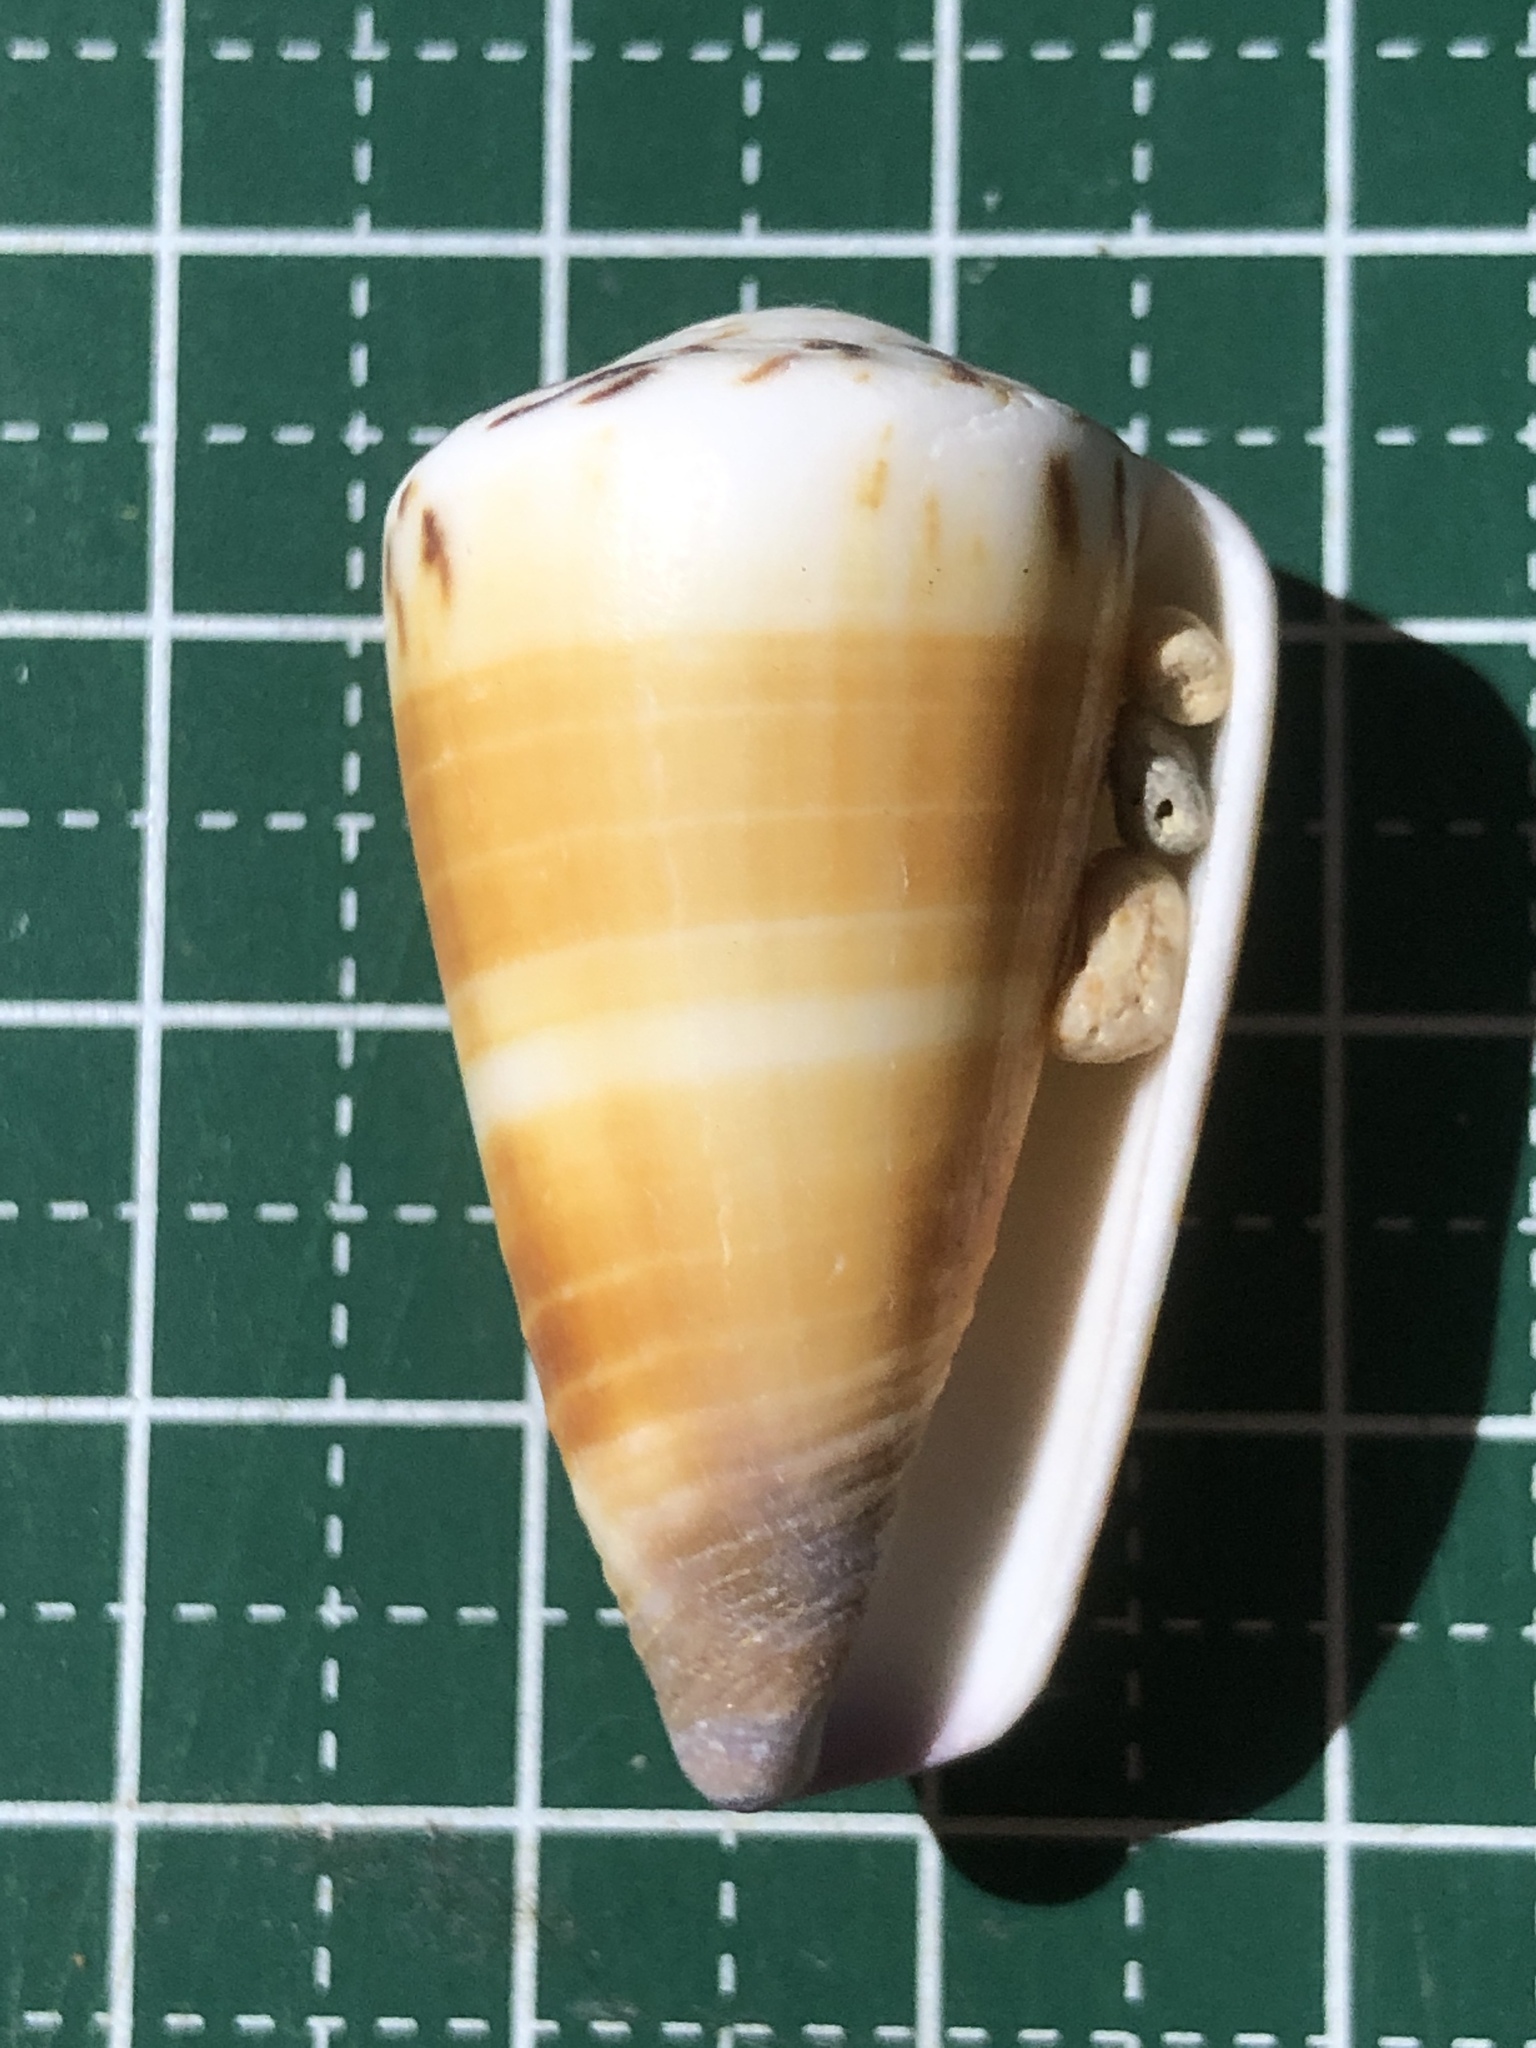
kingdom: Animalia
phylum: Mollusca
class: Gastropoda
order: Neogastropoda
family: Conidae
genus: Conus
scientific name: Conus planorbis
